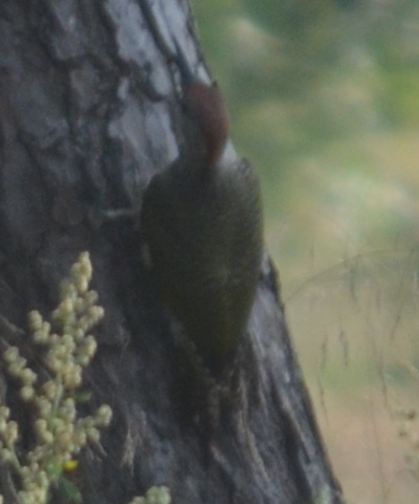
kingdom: Animalia
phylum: Chordata
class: Aves
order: Piciformes
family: Picidae
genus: Picus
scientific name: Picus sharpei
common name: Iberian green woodpecker
